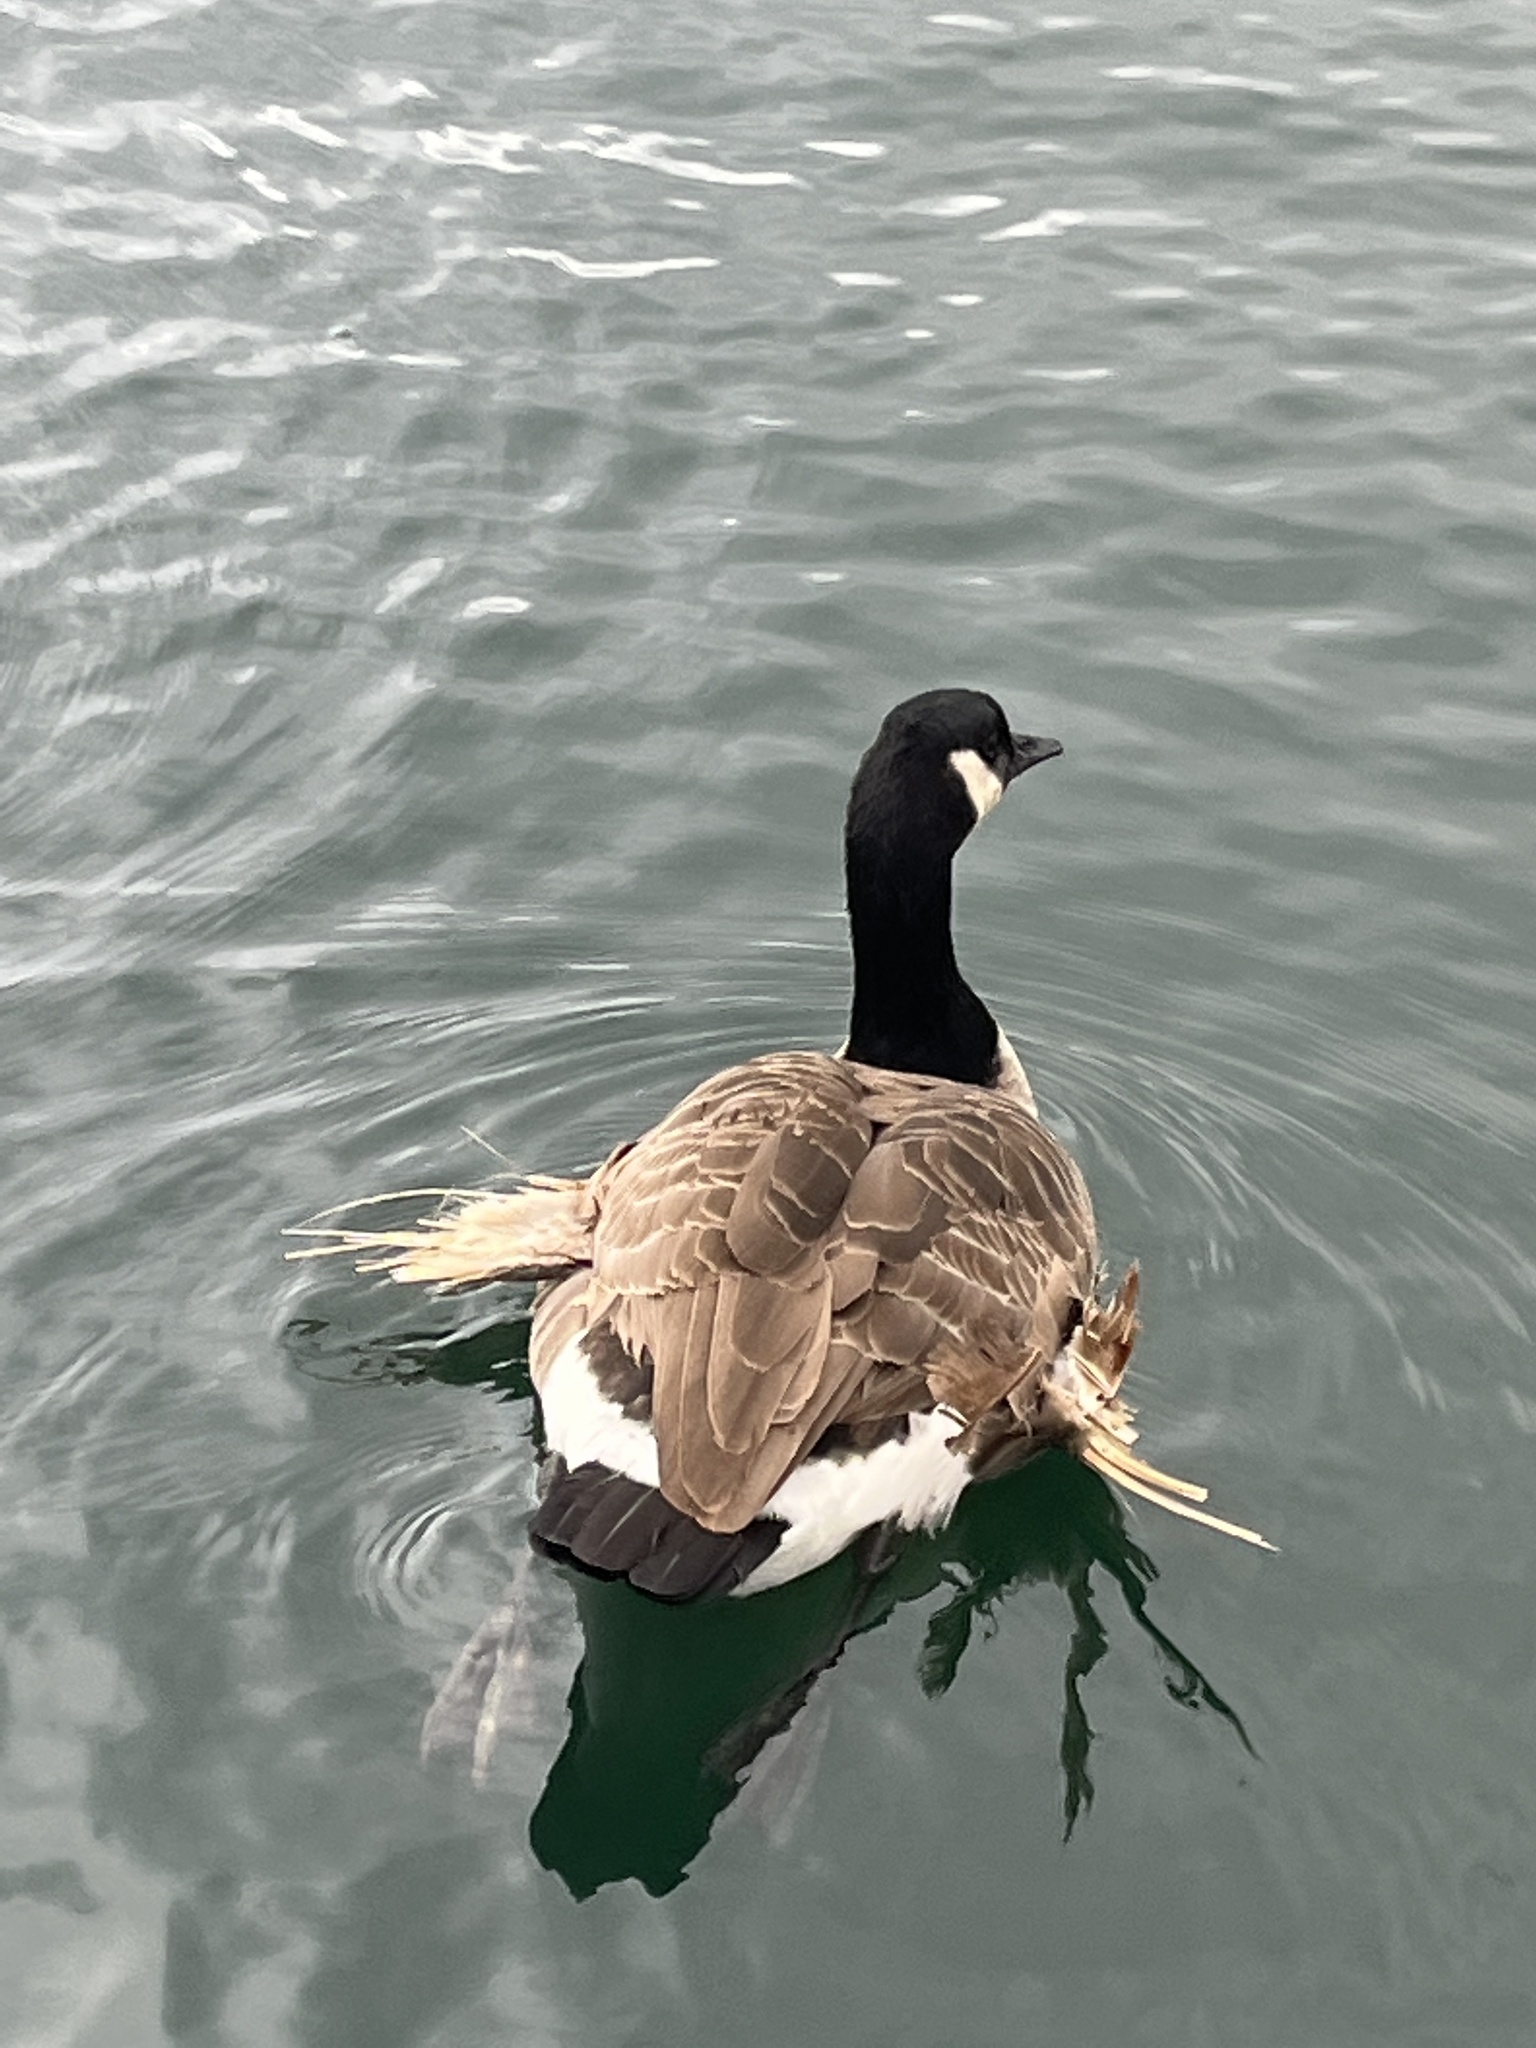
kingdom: Animalia
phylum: Chordata
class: Aves
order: Anseriformes
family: Anatidae
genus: Branta
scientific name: Branta canadensis
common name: Canada goose
